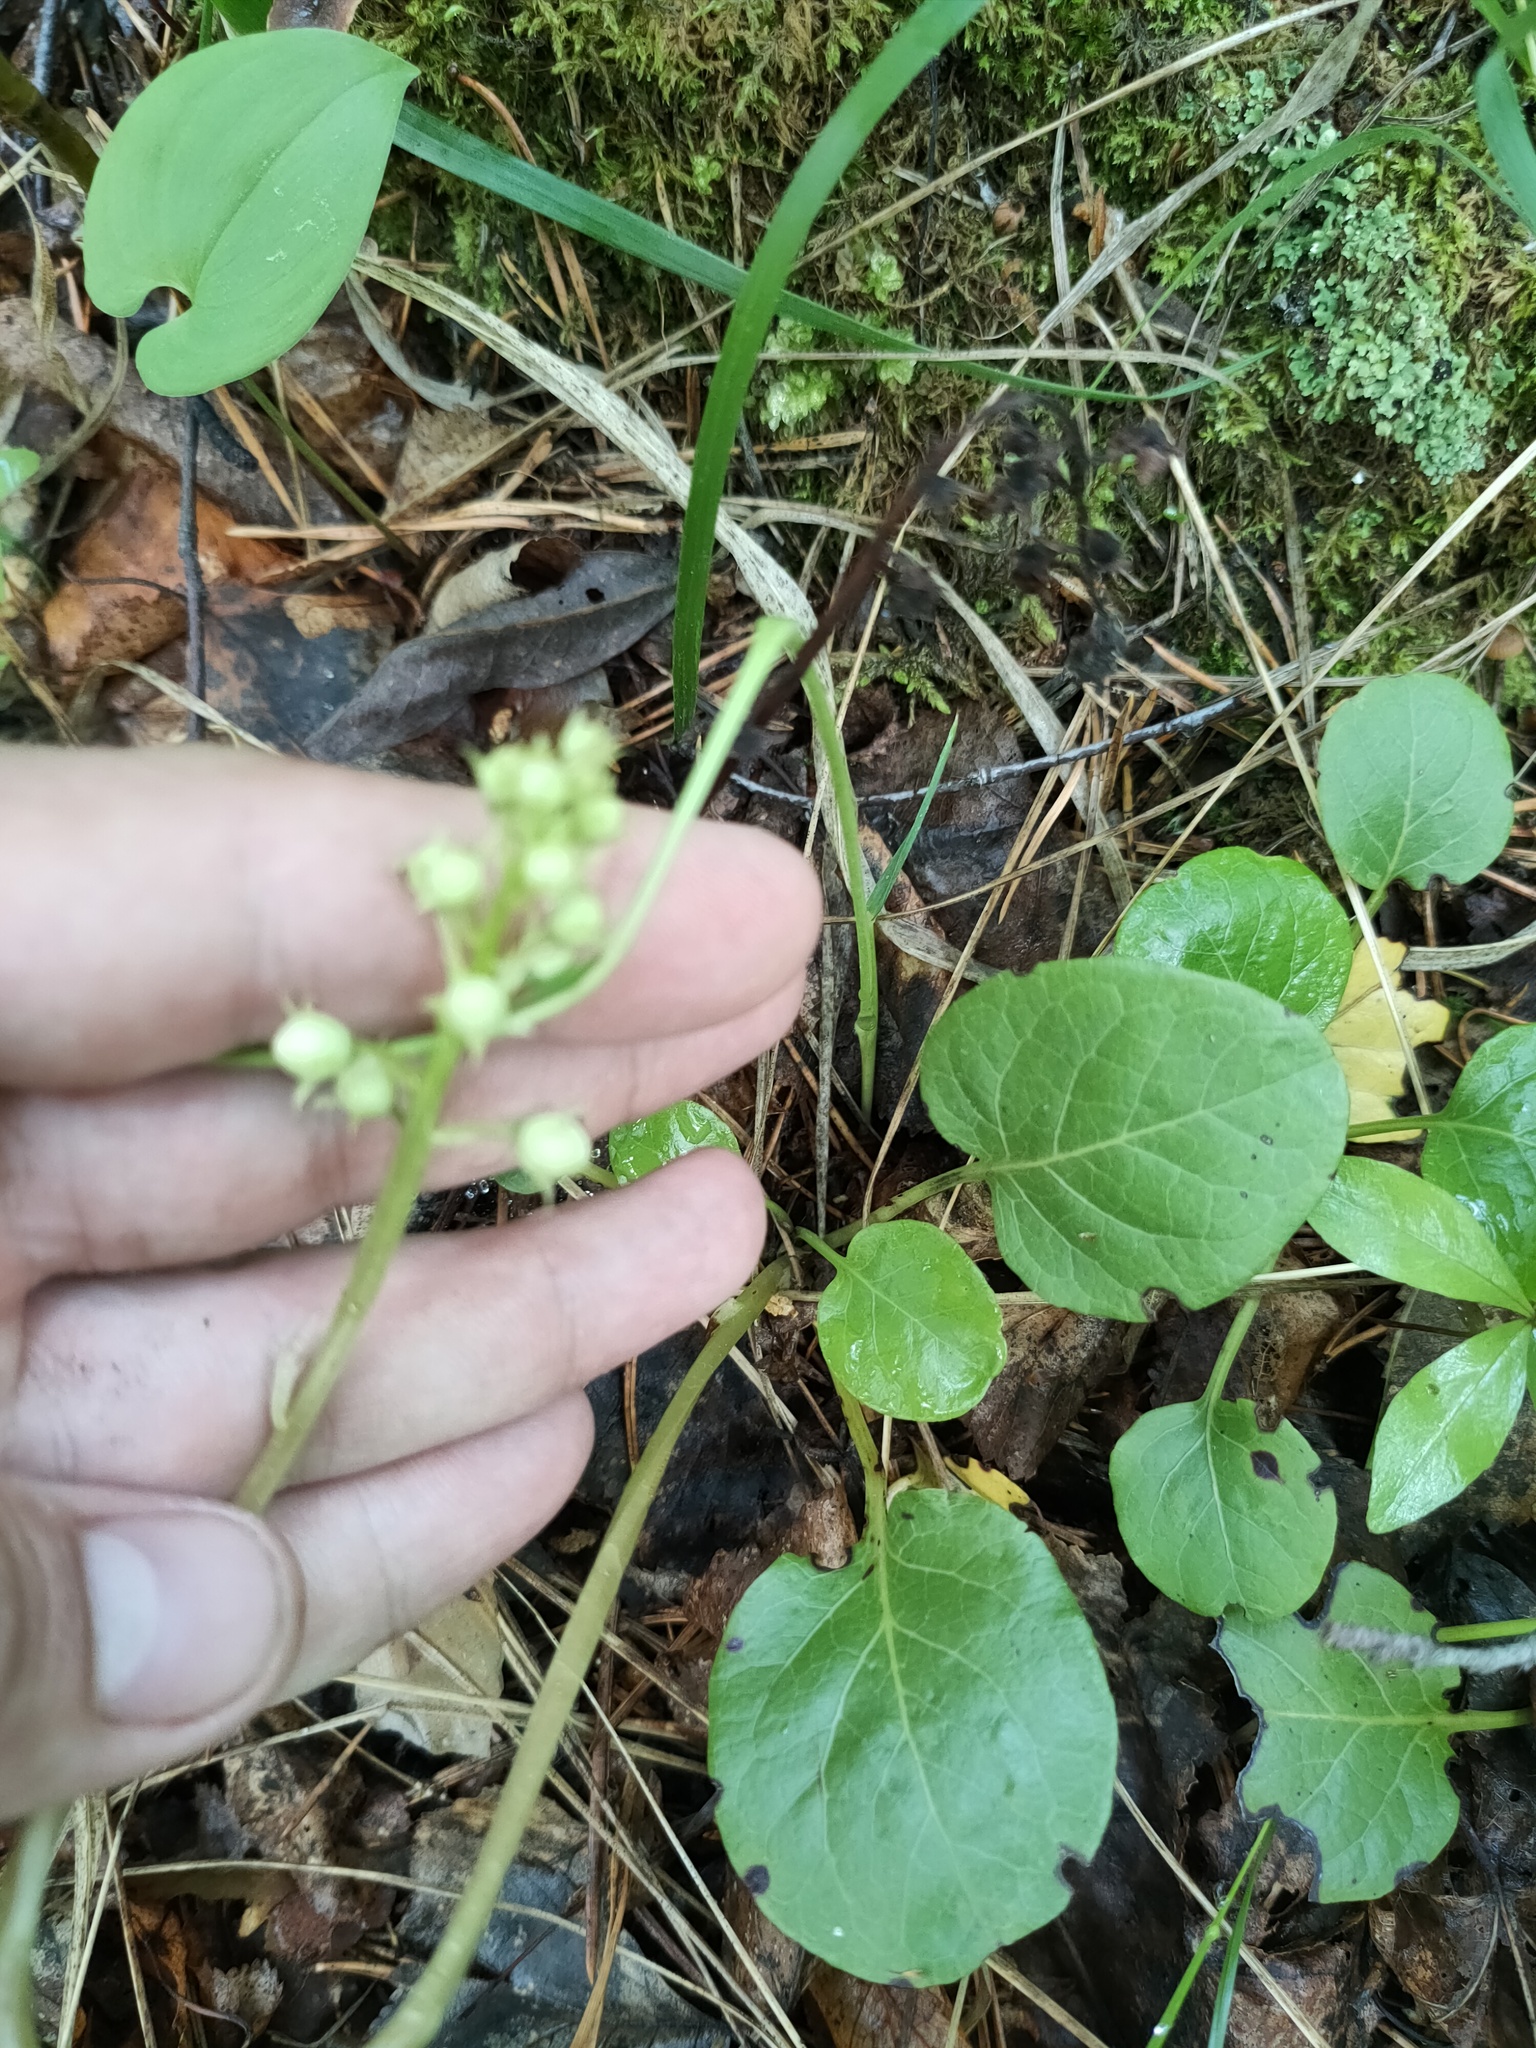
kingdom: Plantae
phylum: Tracheophyta
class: Magnoliopsida
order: Ericales
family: Ericaceae
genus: Pyrola
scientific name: Pyrola rotundifolia
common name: Round-leaved wintergreen
